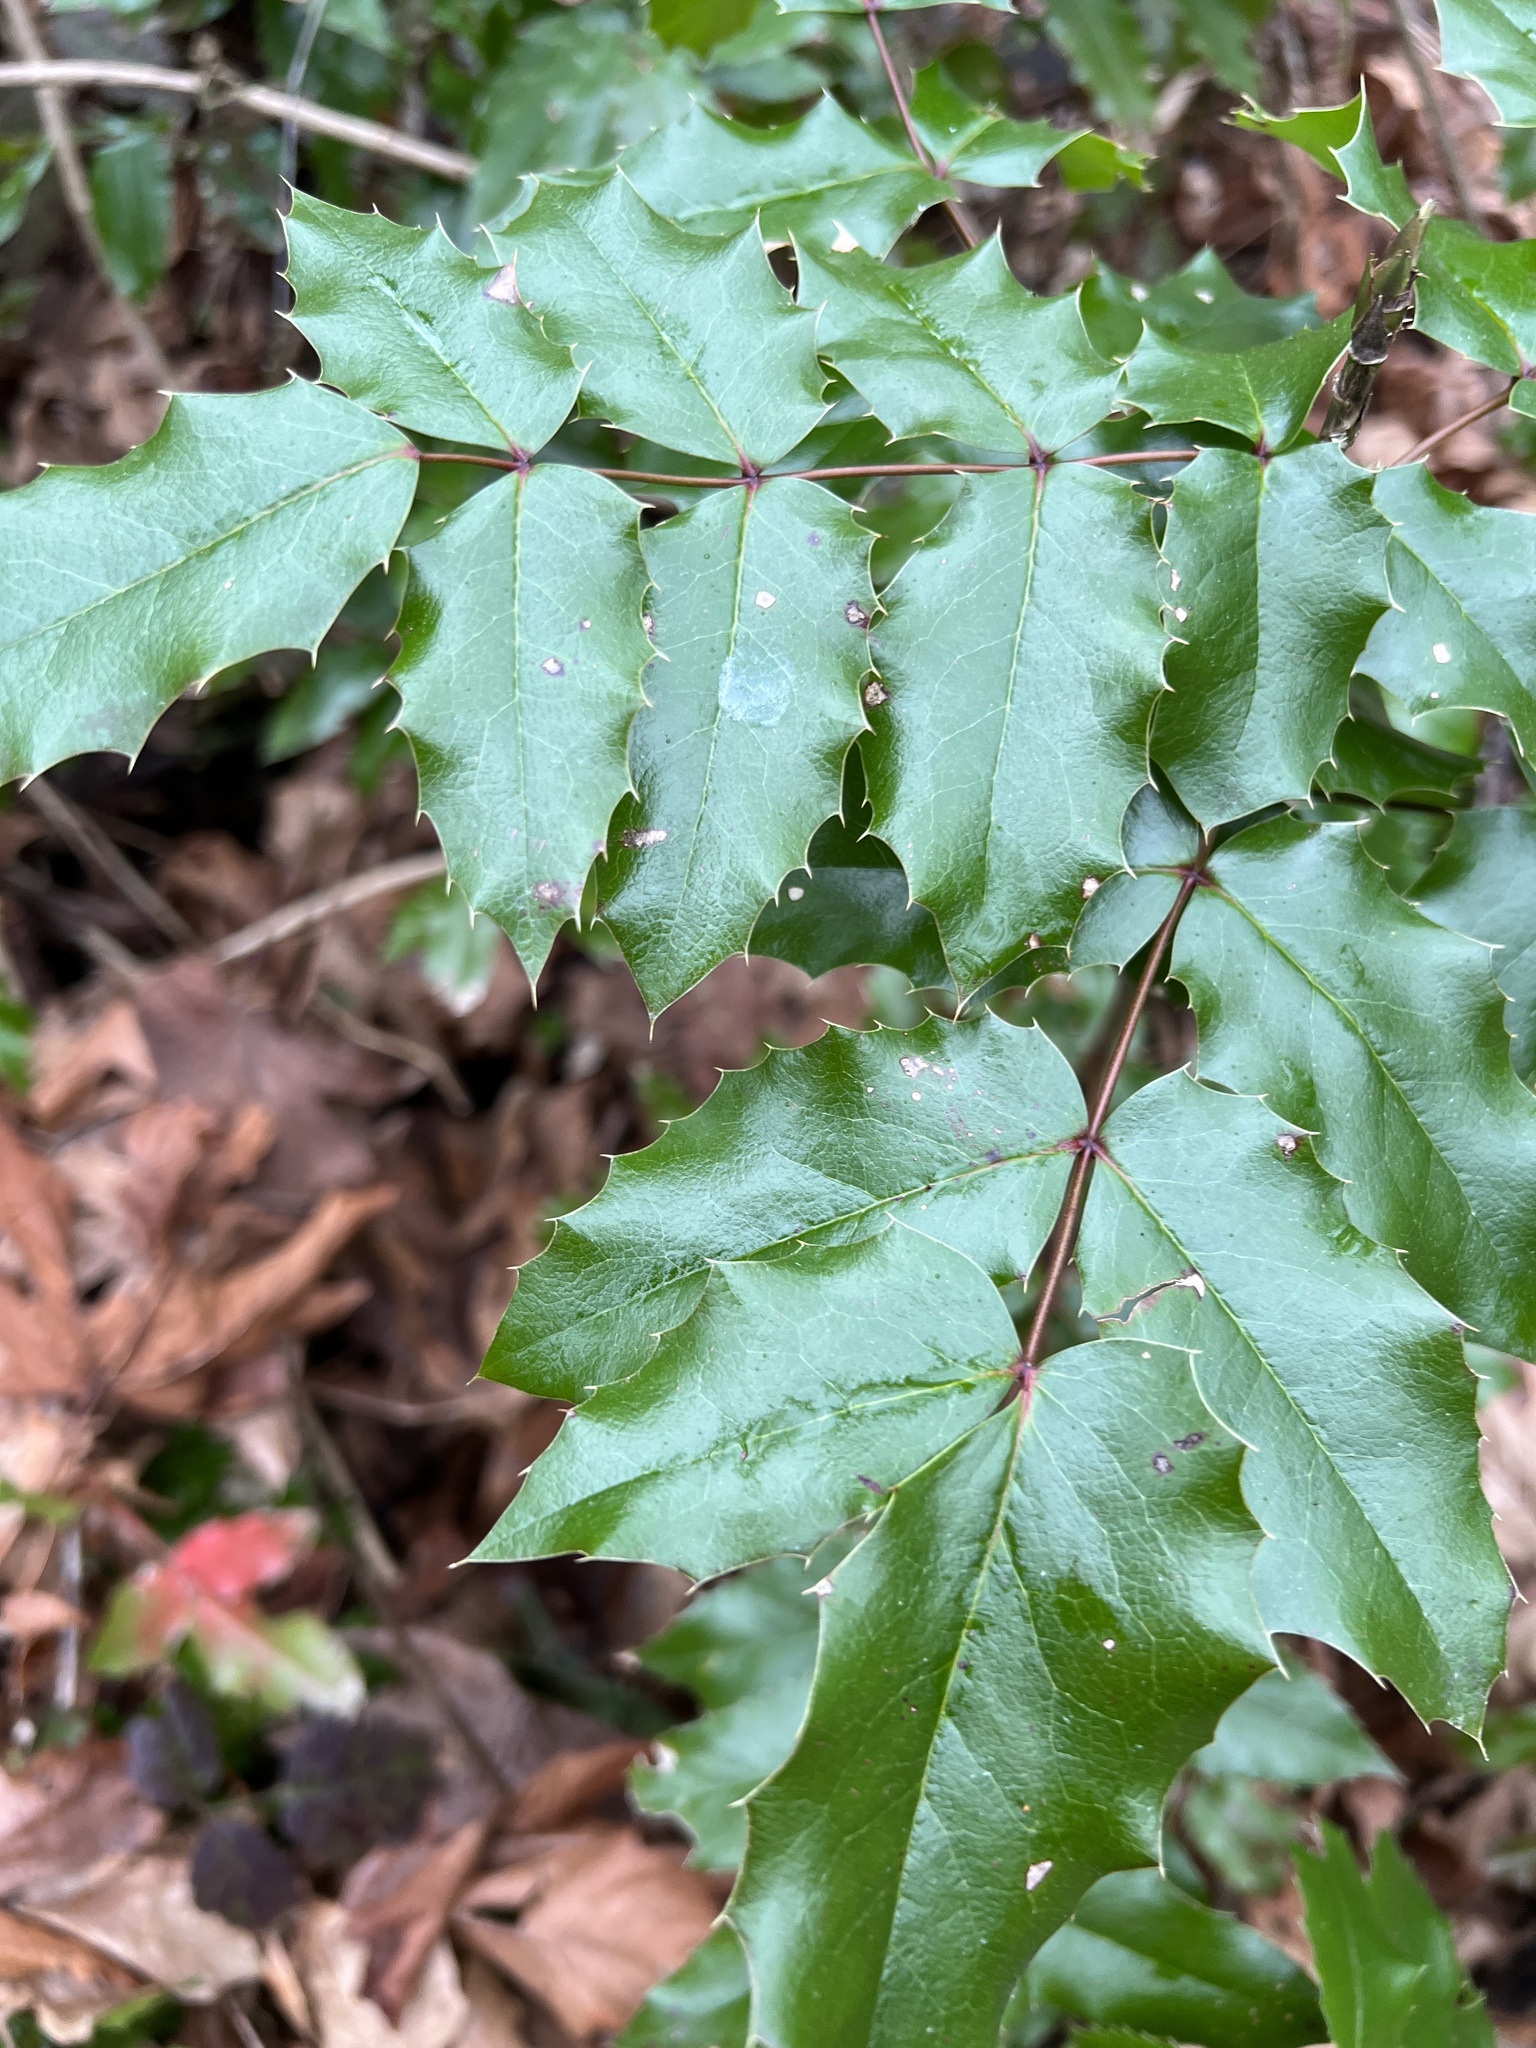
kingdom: Plantae
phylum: Tracheophyta
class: Magnoliopsida
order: Ranunculales
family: Berberidaceae
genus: Mahonia
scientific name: Mahonia aquifolium
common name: Oregon-grape
